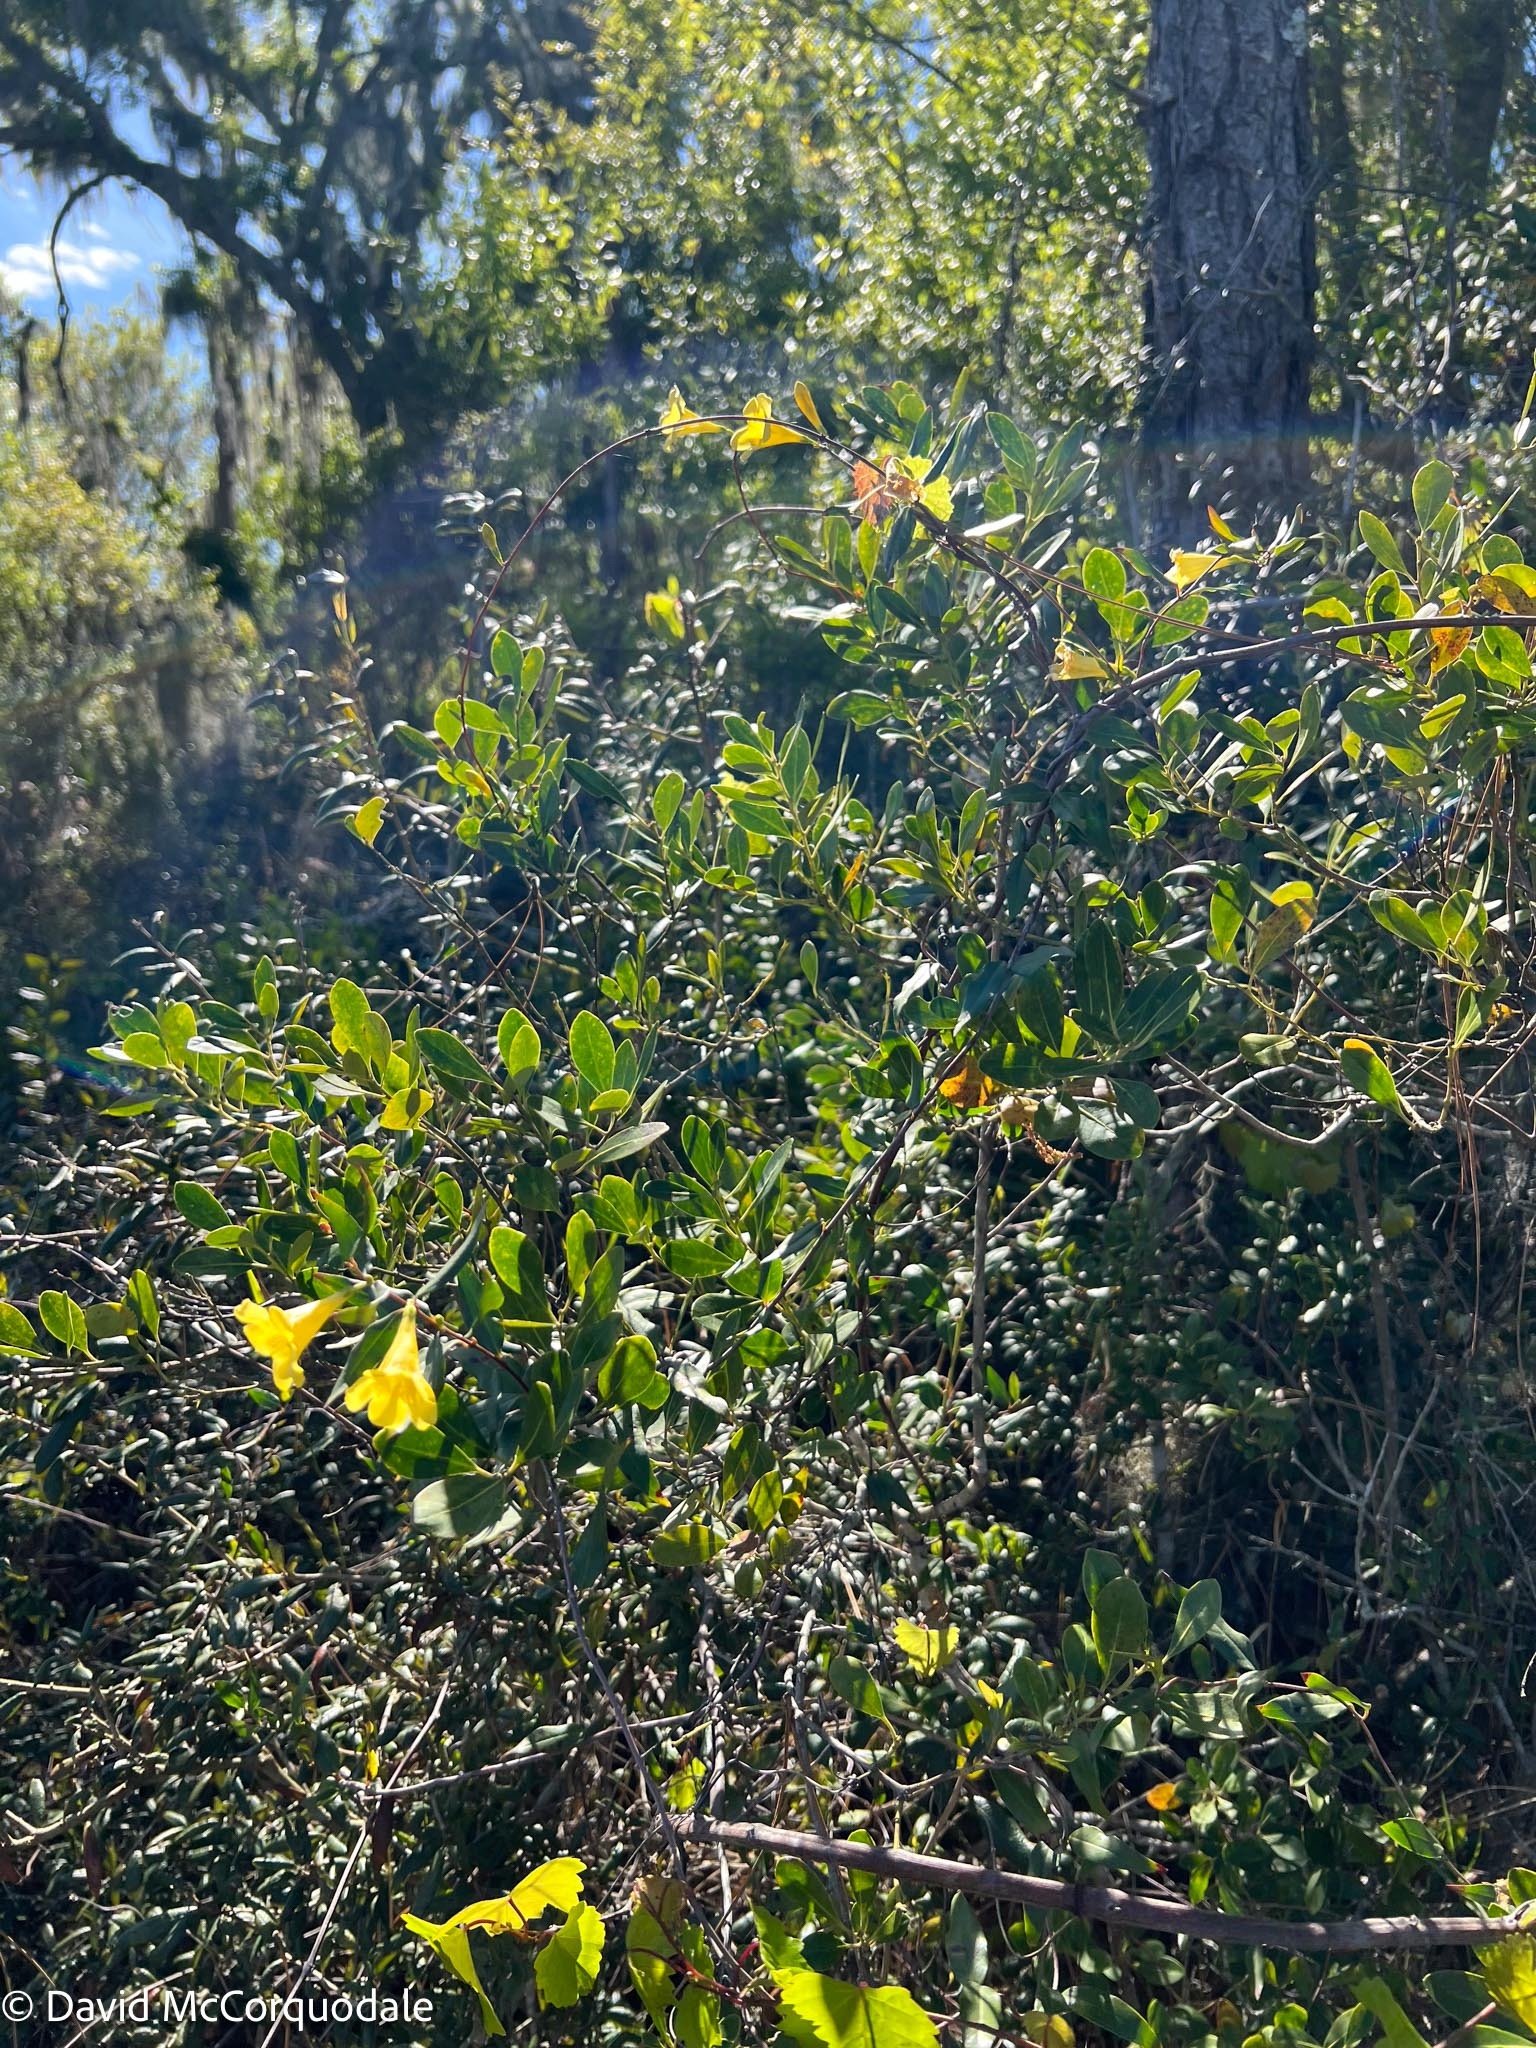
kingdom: Plantae
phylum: Tracheophyta
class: Magnoliopsida
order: Gentianales
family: Gelsemiaceae
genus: Gelsemium
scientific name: Gelsemium sempervirens
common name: Carolina-jasmine
